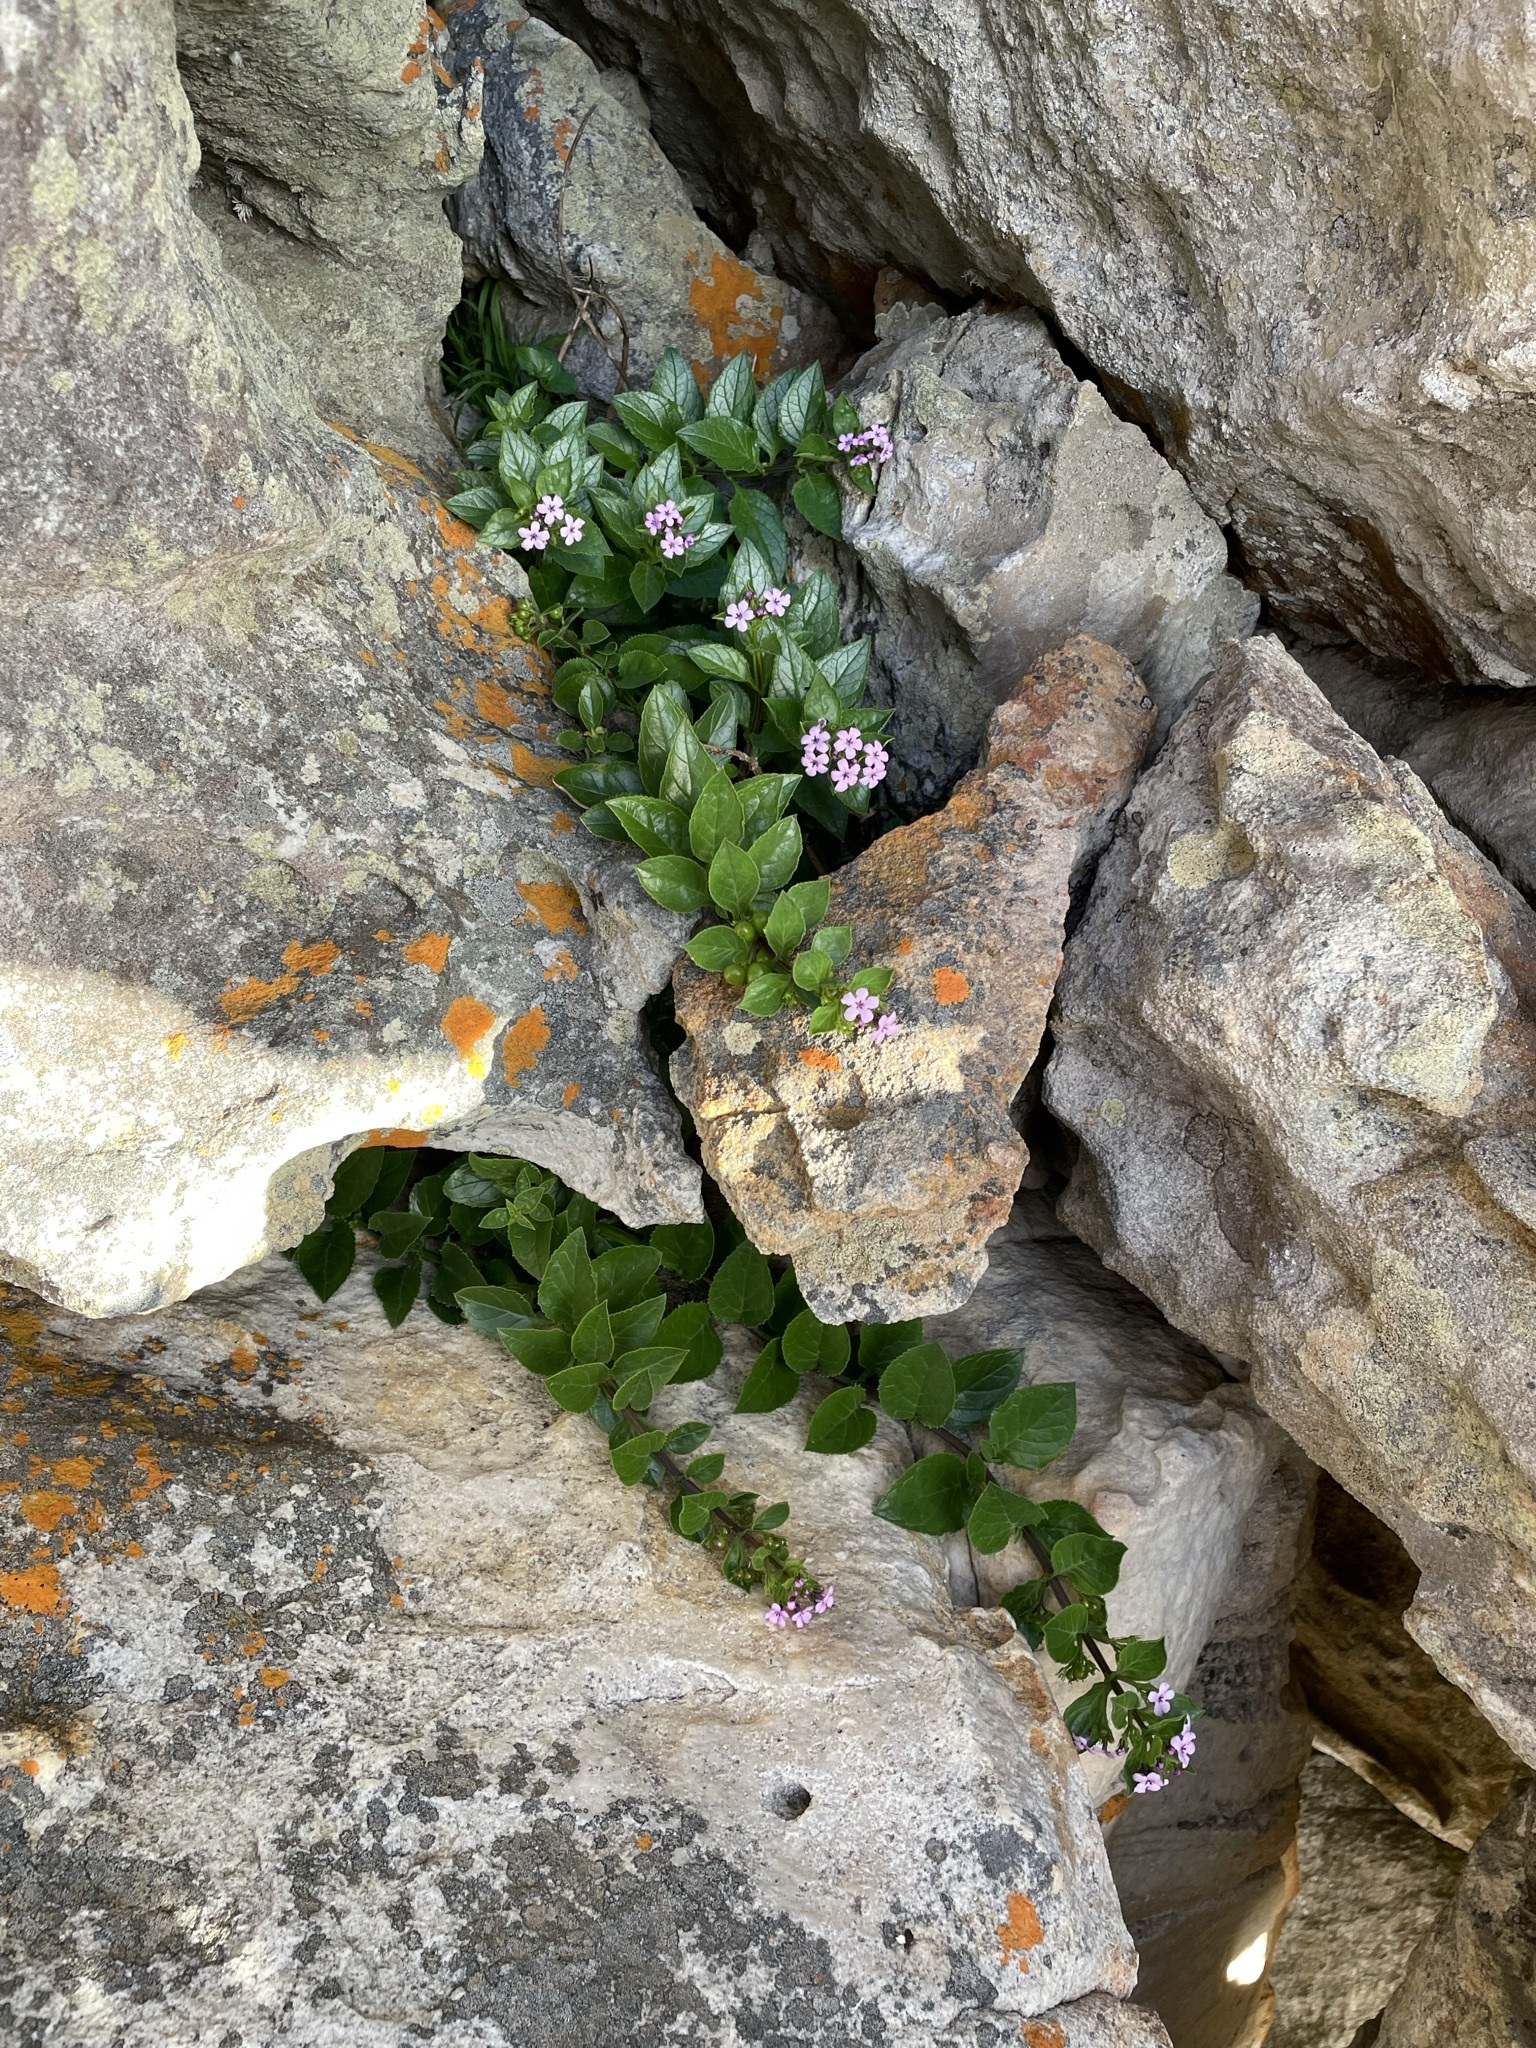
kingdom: Plantae
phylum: Tracheophyta
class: Magnoliopsida
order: Lamiales
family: Scrophulariaceae
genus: Teedia
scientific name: Teedia lucida
